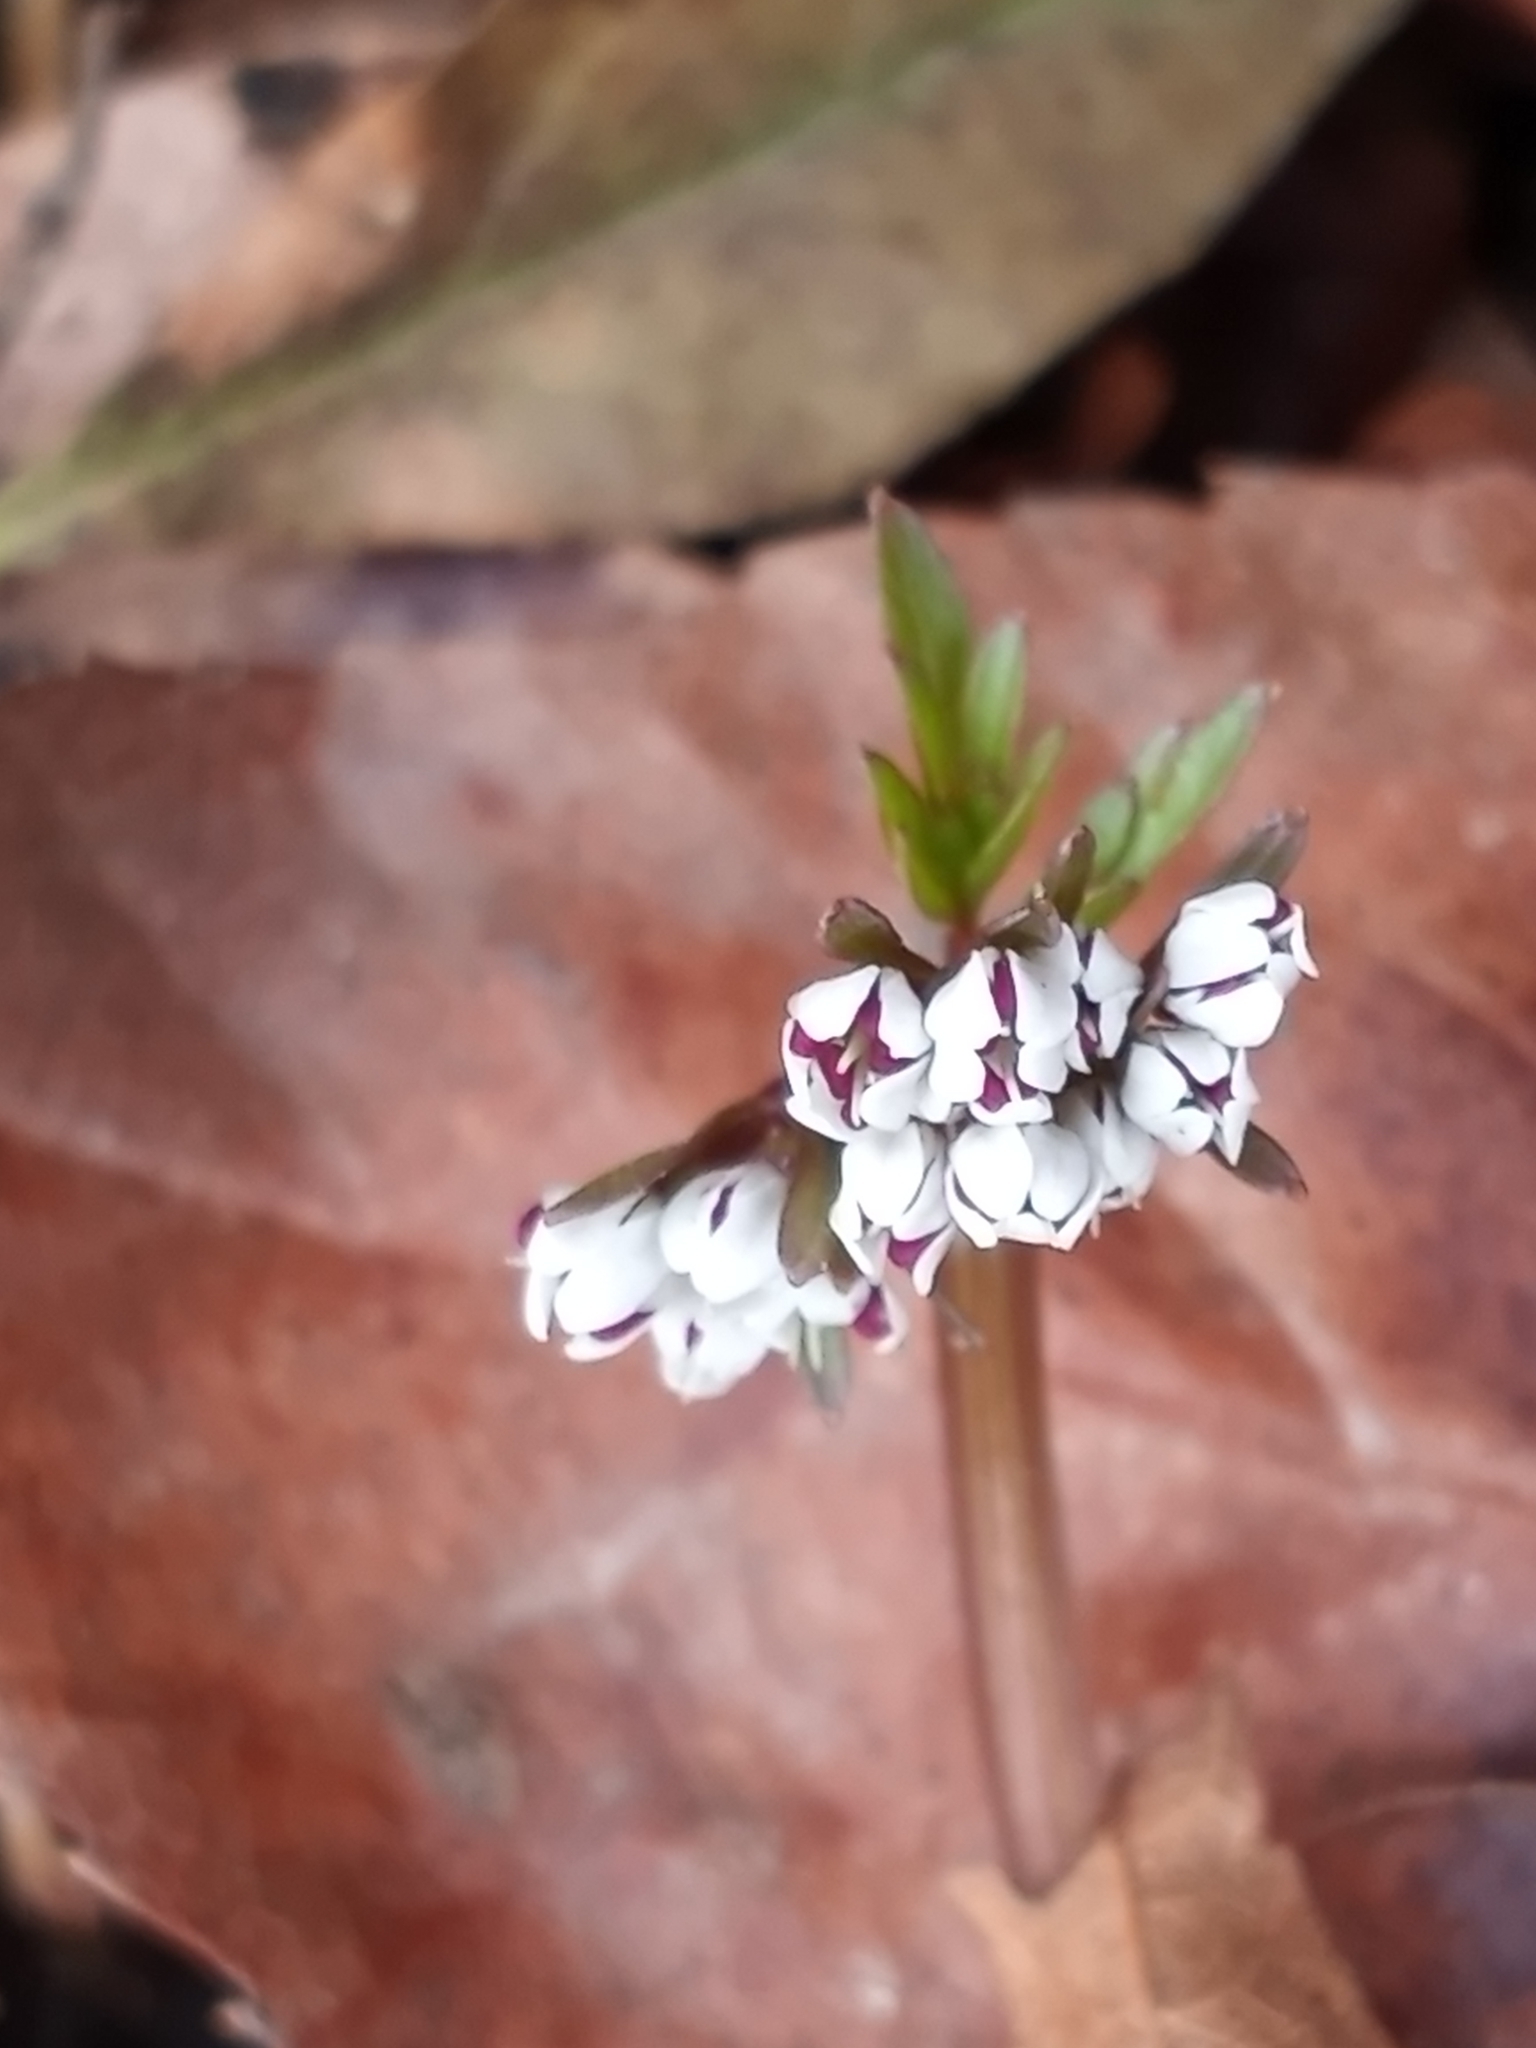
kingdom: Plantae
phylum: Tracheophyta
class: Magnoliopsida
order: Apiales
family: Apiaceae
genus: Erigenia
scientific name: Erigenia bulbosa
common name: Pepper-and-salt
